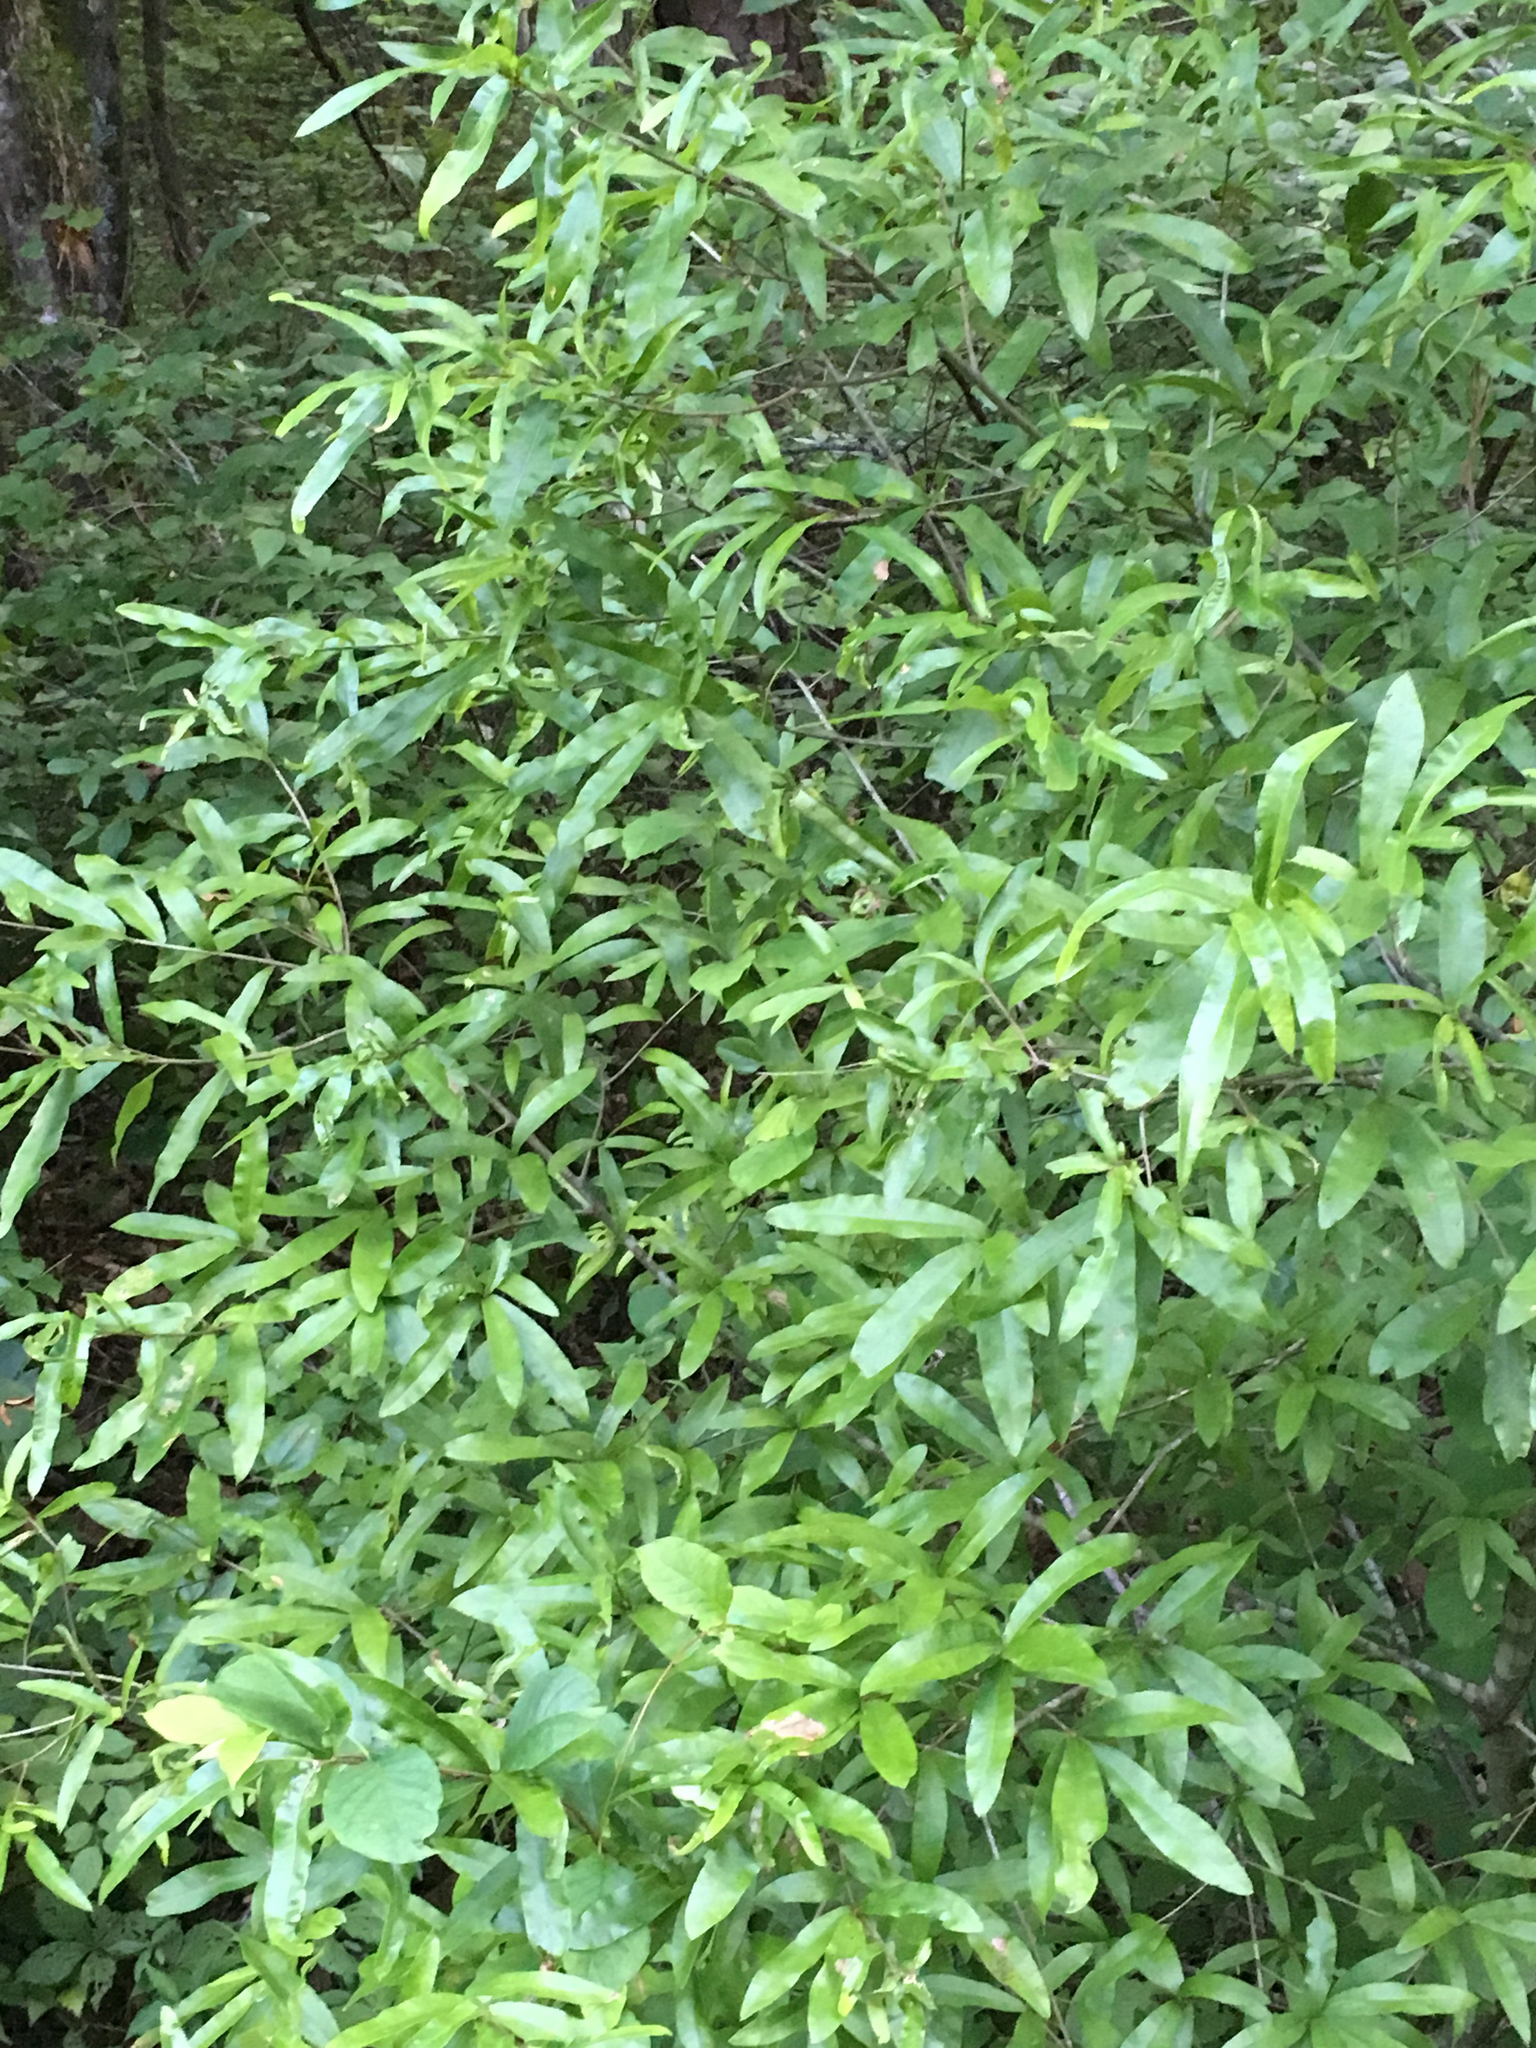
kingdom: Plantae
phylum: Tracheophyta
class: Magnoliopsida
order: Fagales
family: Fagaceae
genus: Quercus
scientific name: Quercus phellos
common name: Willow oak
